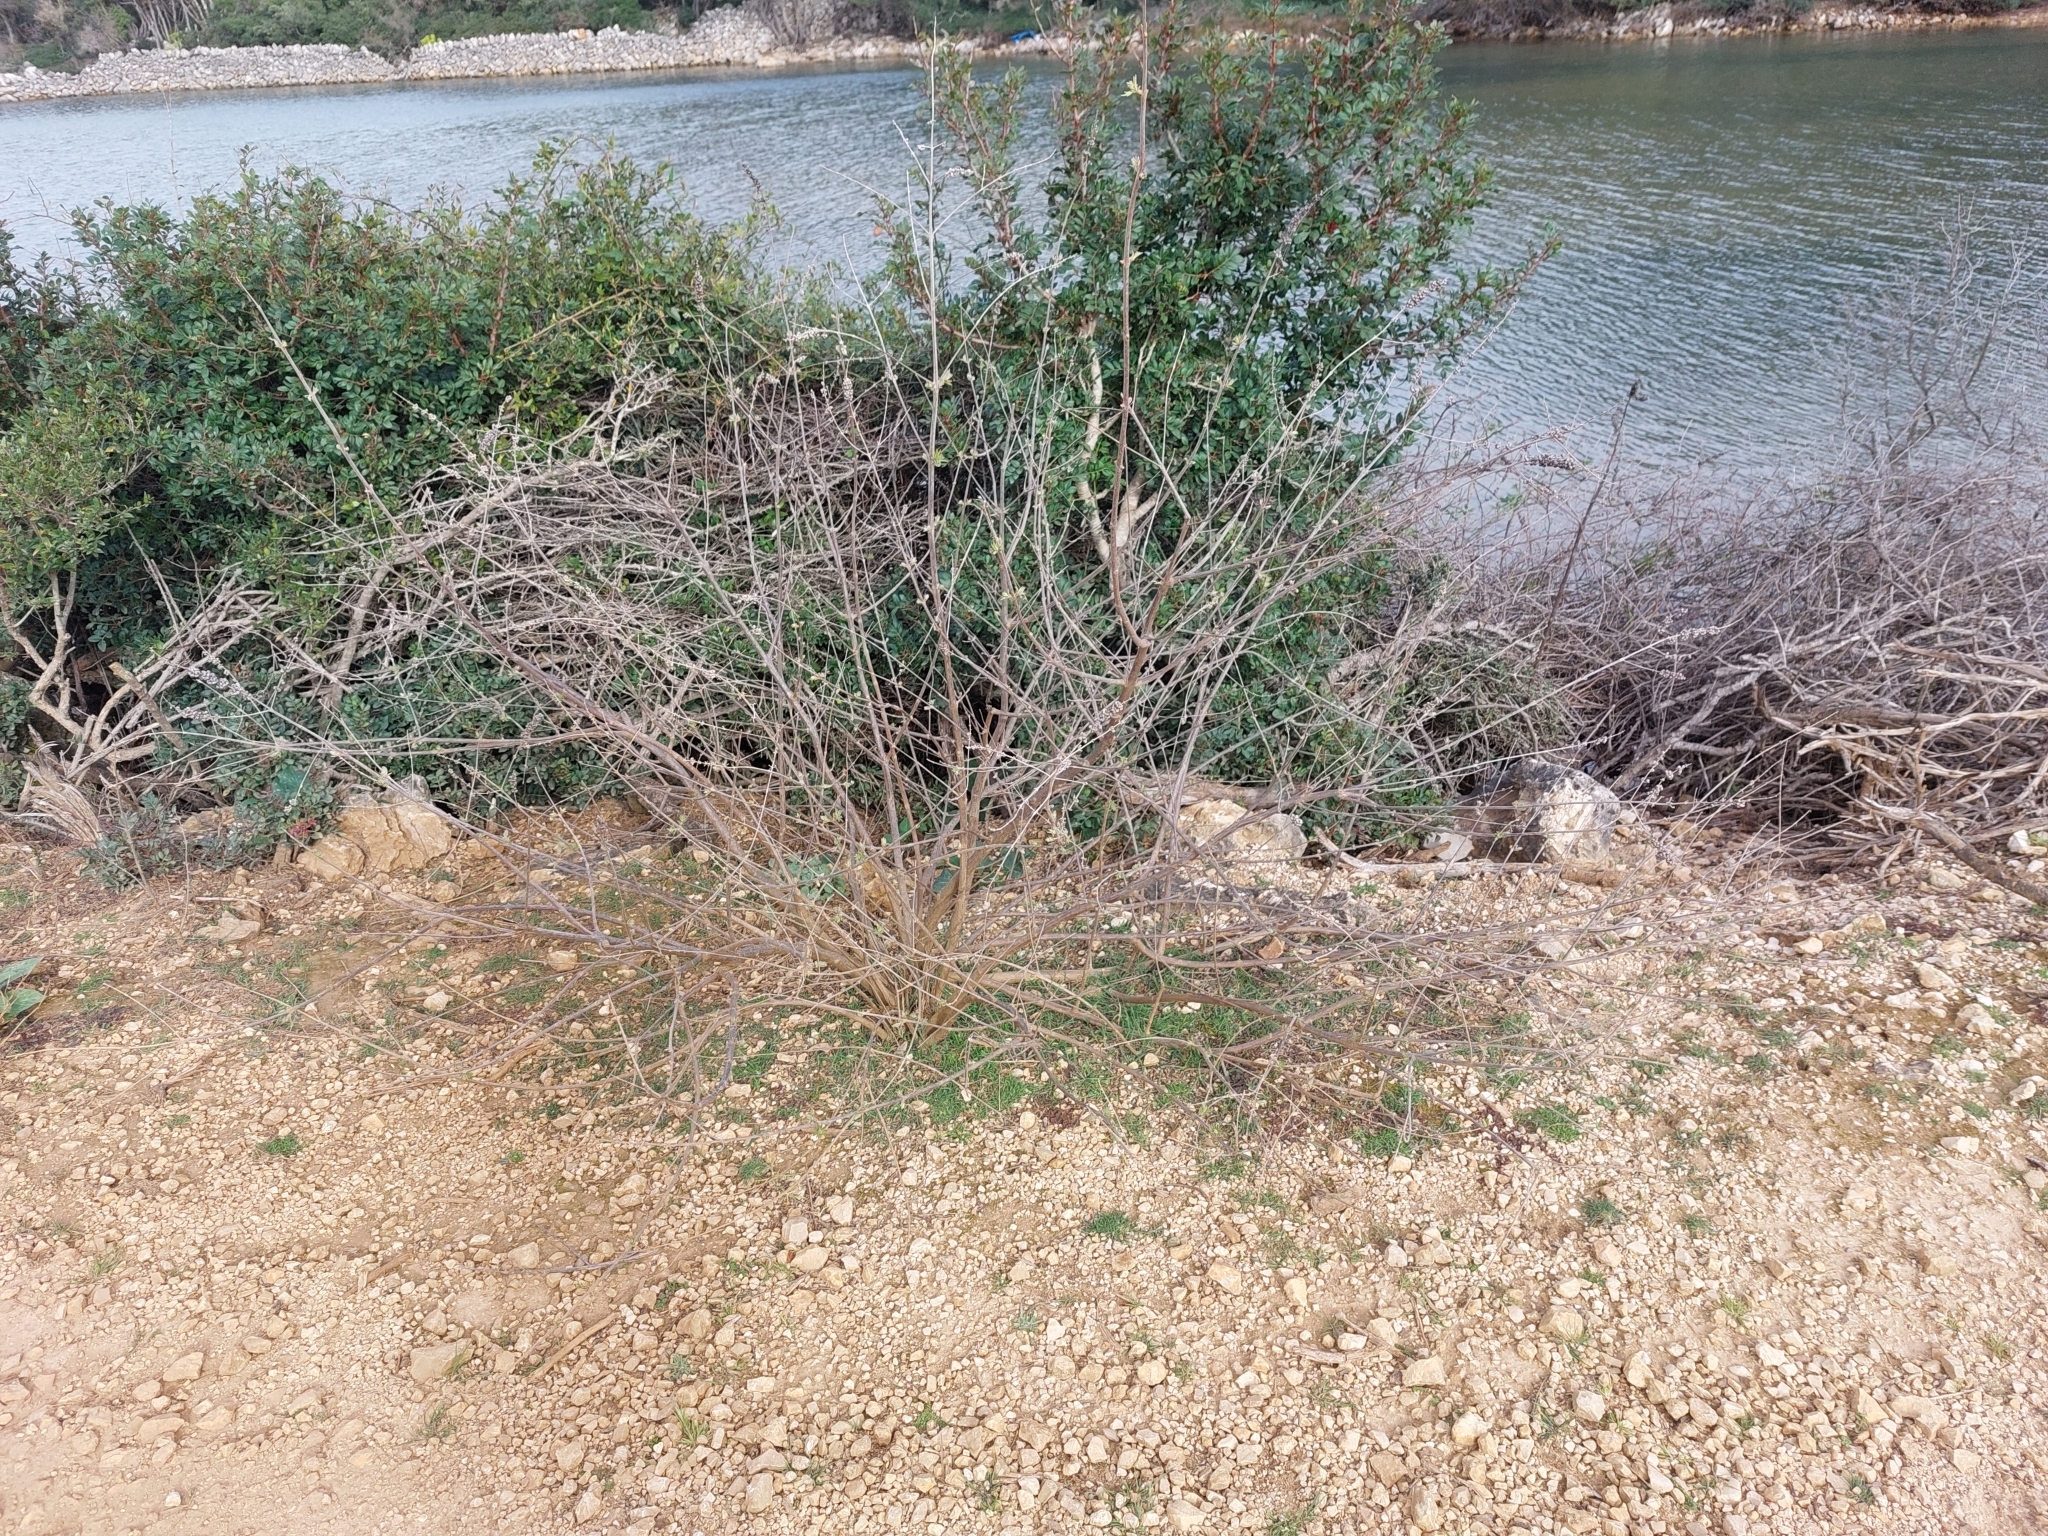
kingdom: Plantae
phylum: Tracheophyta
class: Magnoliopsida
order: Lamiales
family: Lamiaceae
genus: Vitex
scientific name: Vitex agnus-castus
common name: Chasteberry
